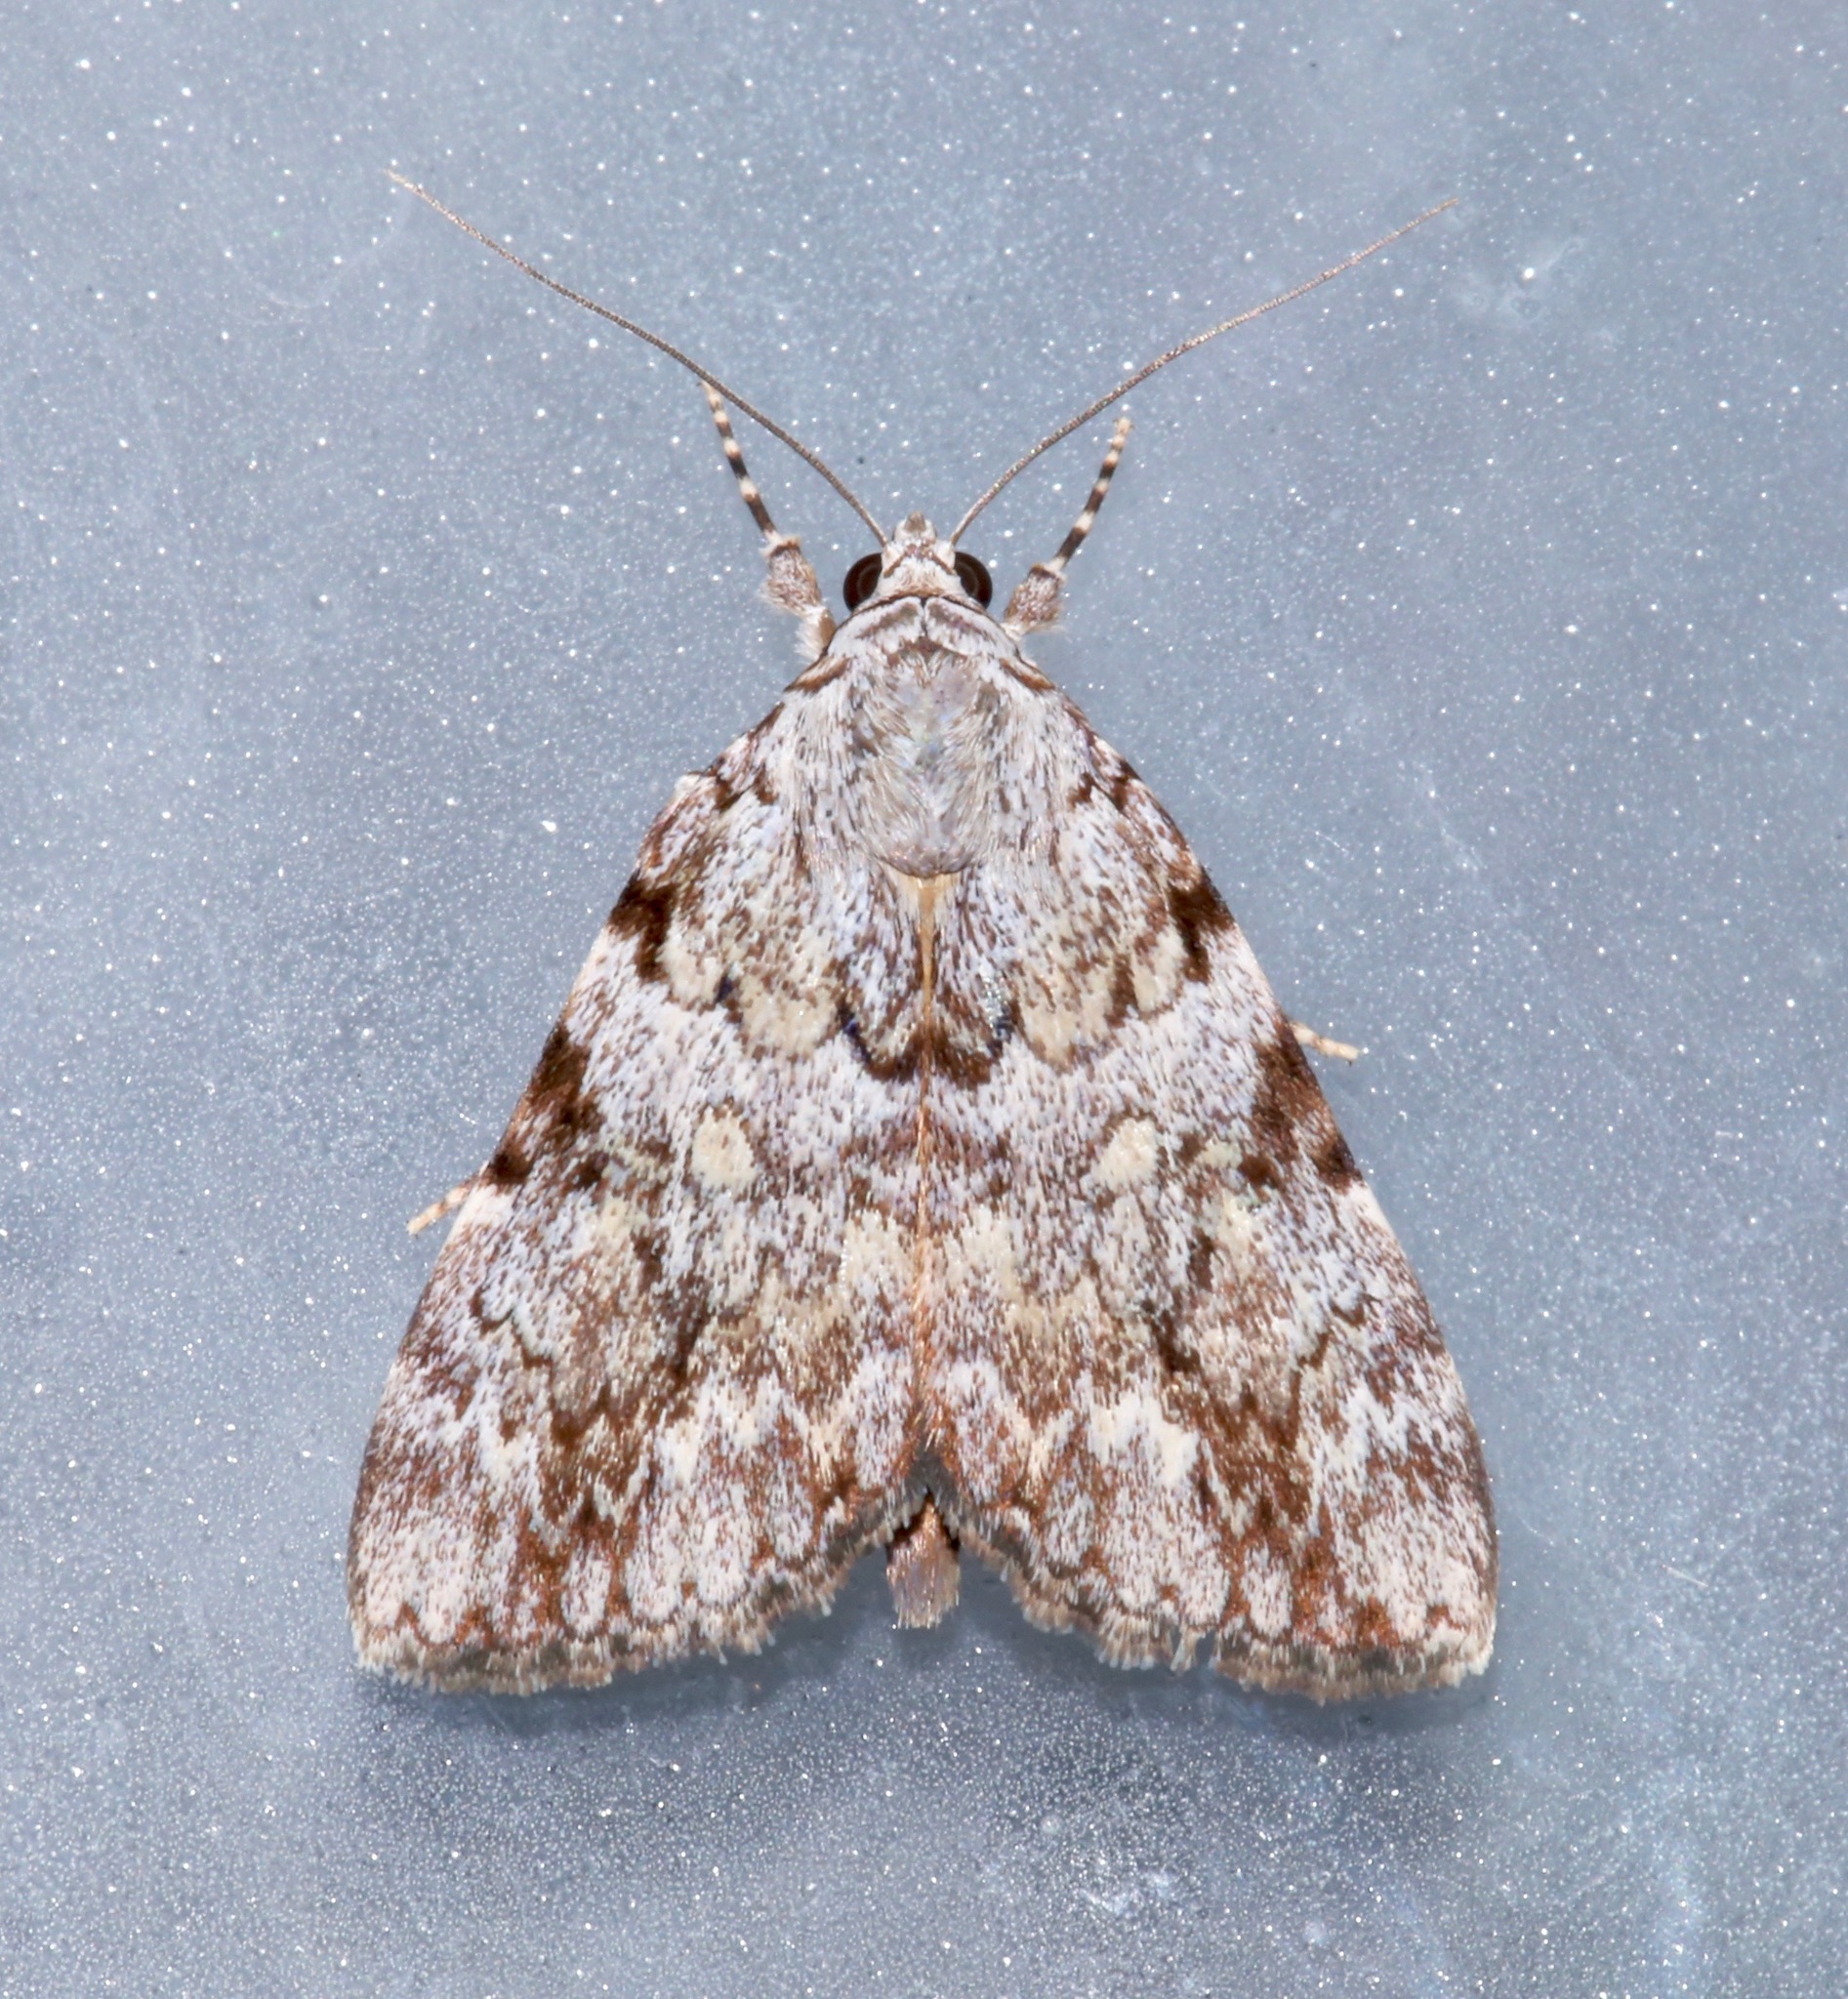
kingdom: Animalia
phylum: Arthropoda
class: Insecta
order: Lepidoptera
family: Erebidae
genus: Catocala
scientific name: Catocala amica
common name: Girlfriend underwing
